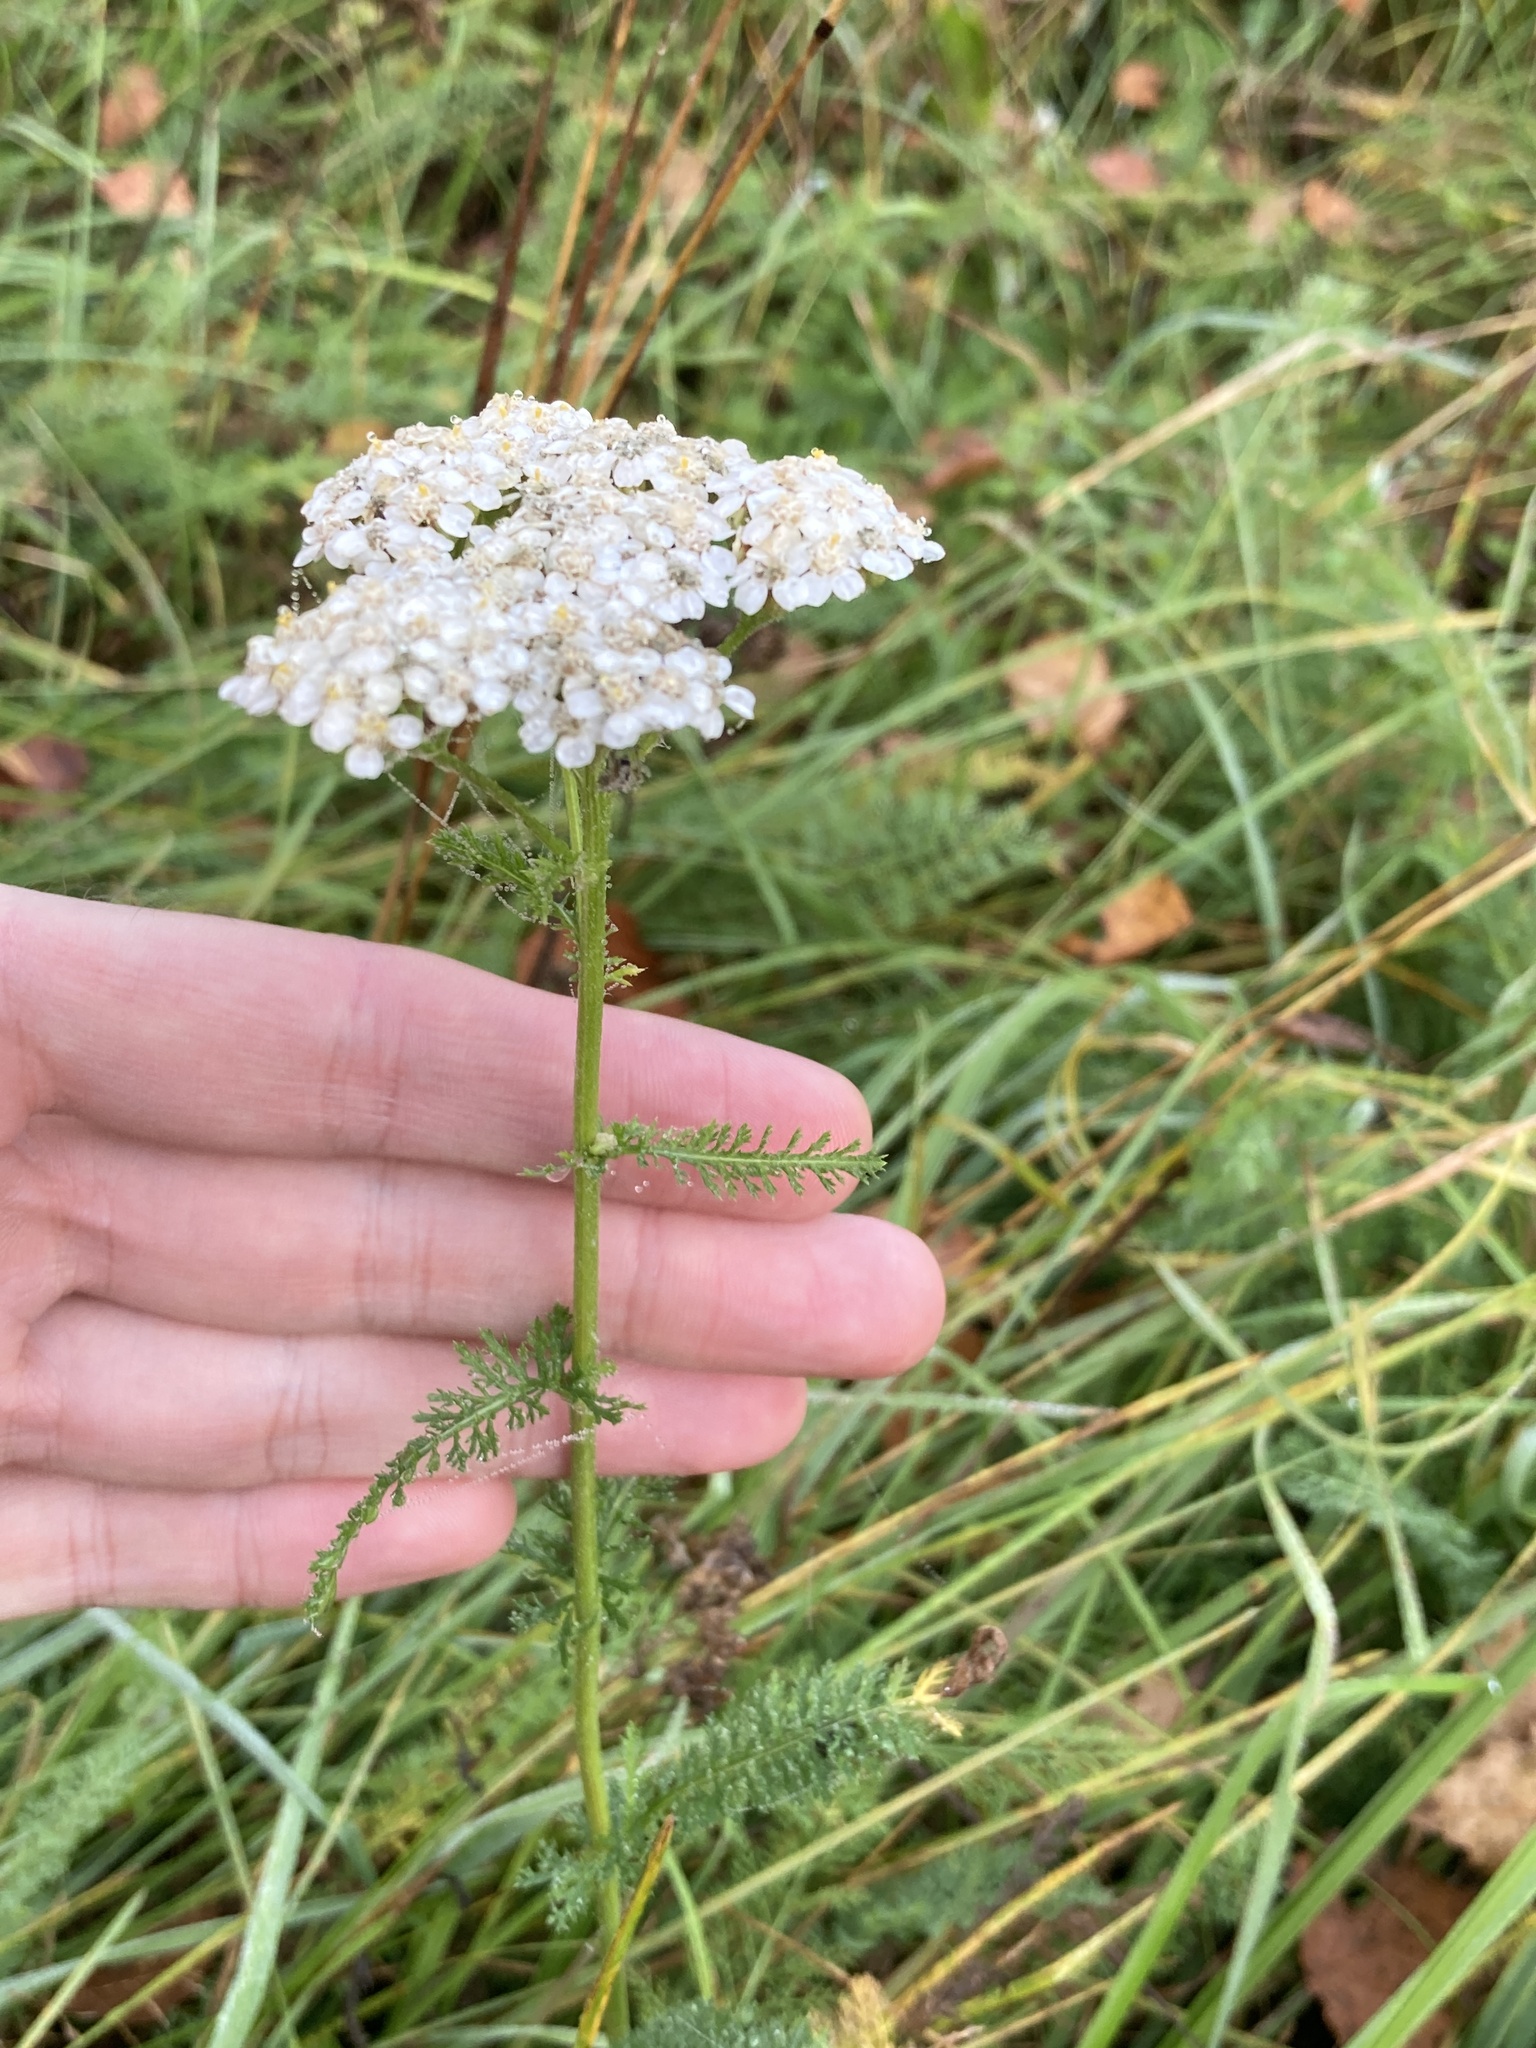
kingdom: Plantae
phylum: Tracheophyta
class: Magnoliopsida
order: Asterales
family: Asteraceae
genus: Achillea
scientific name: Achillea millefolium
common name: Yarrow
